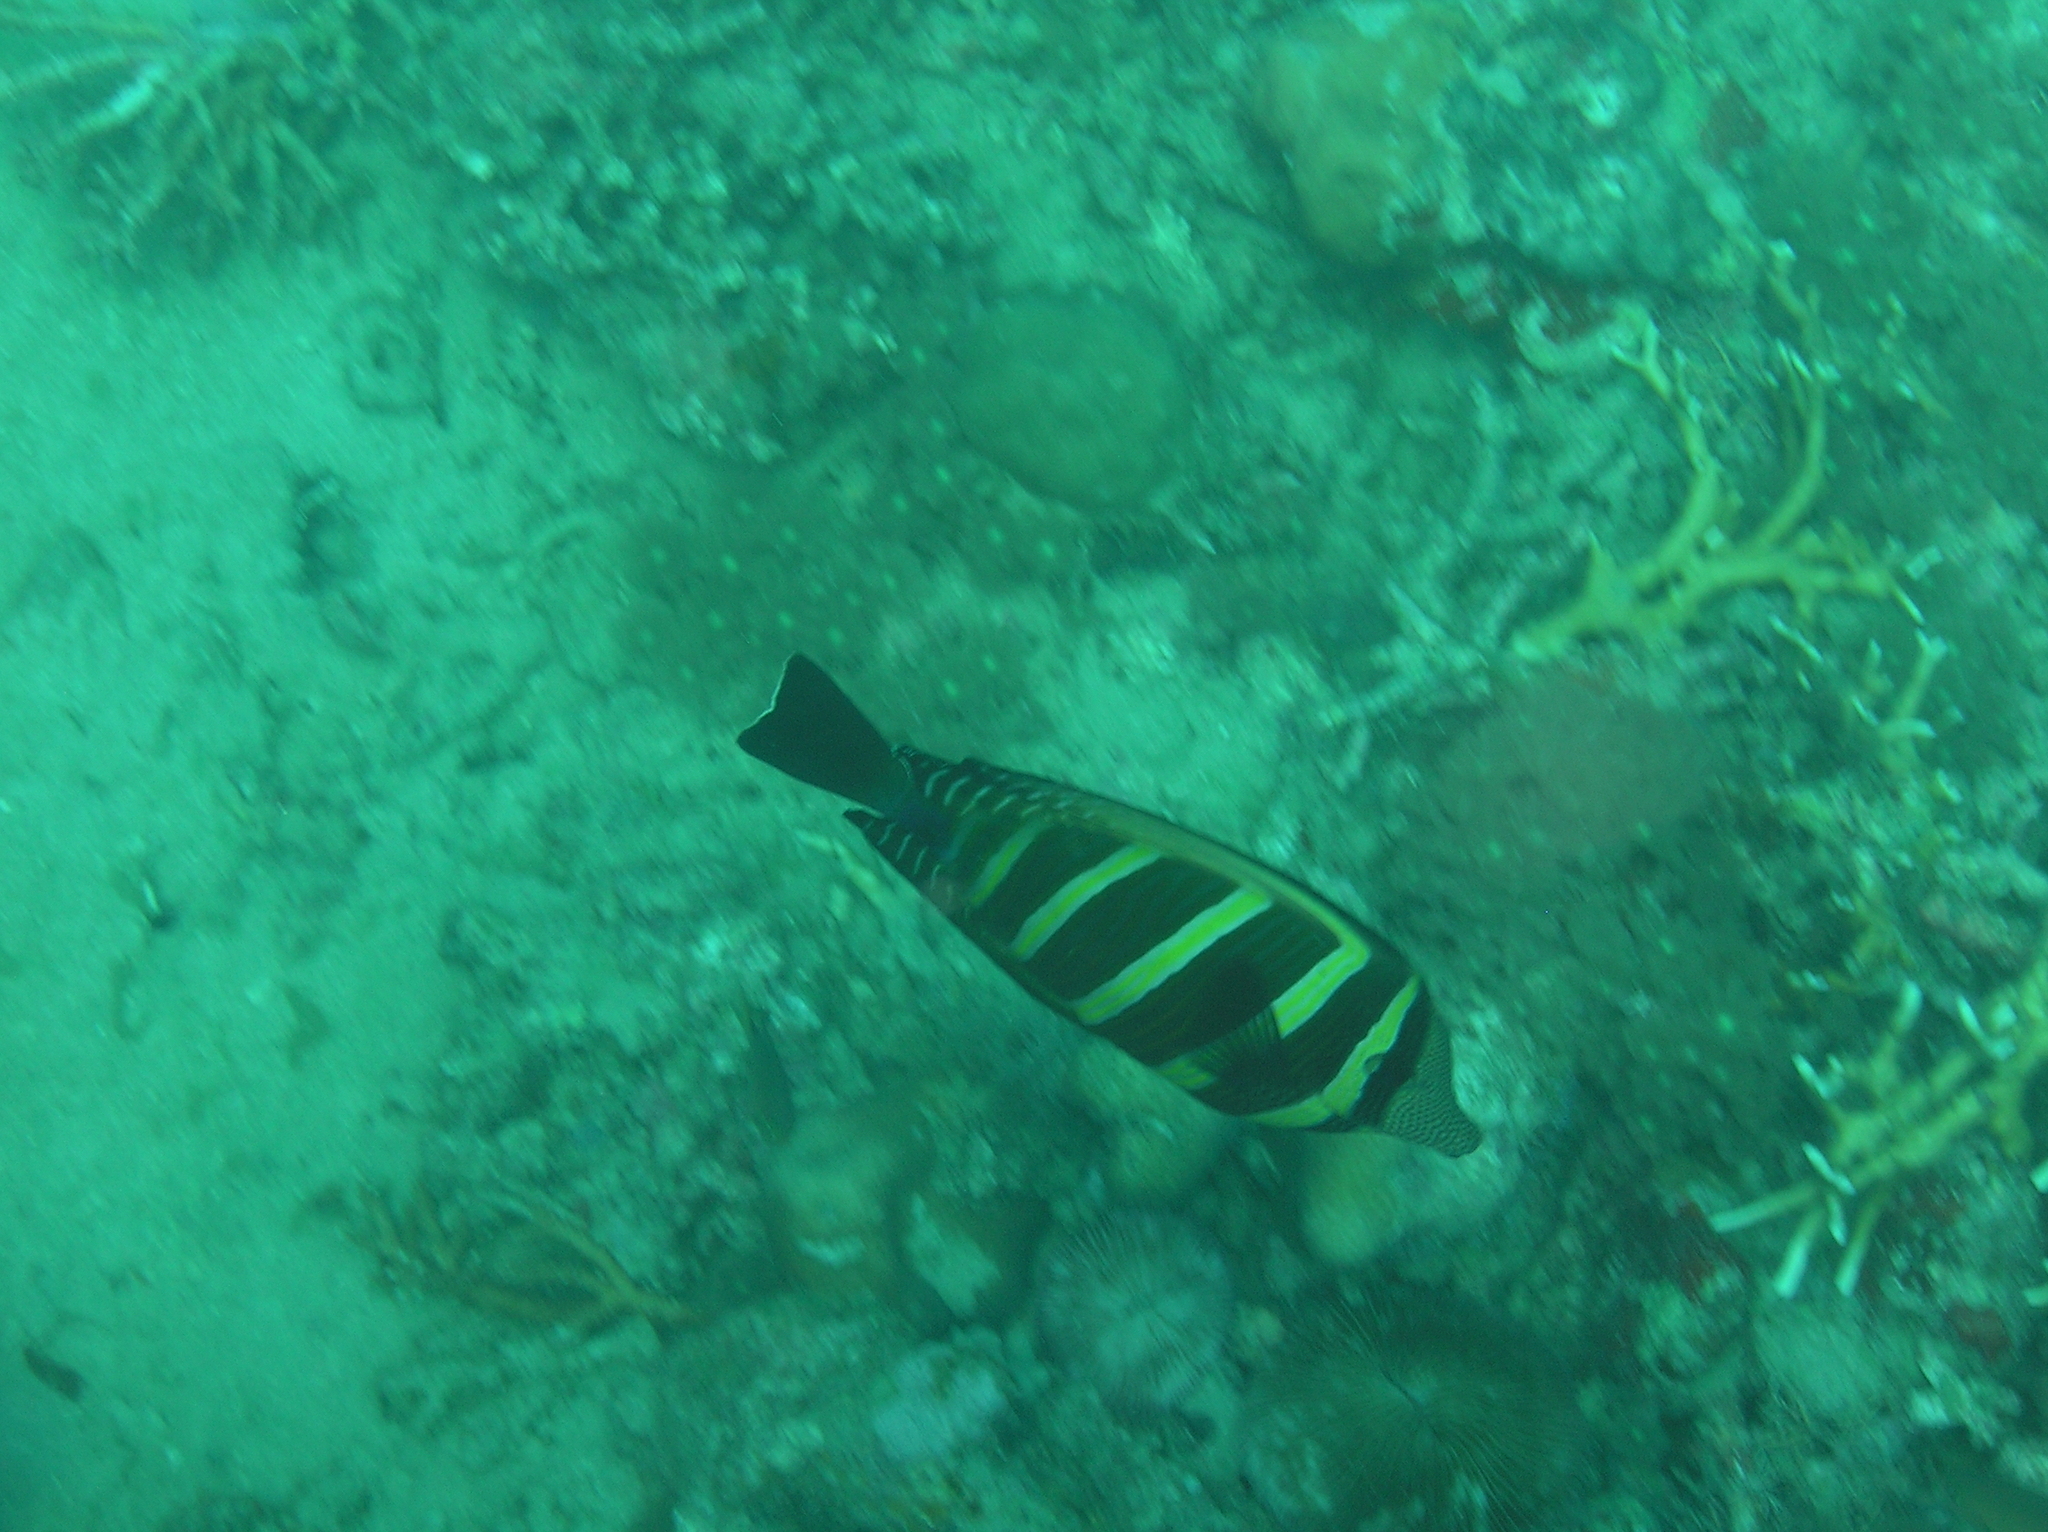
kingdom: Animalia
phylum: Chordata
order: Perciformes
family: Acanthuridae
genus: Zebrasoma
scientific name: Zebrasoma veliferum
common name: Sailfin surgeonfish
